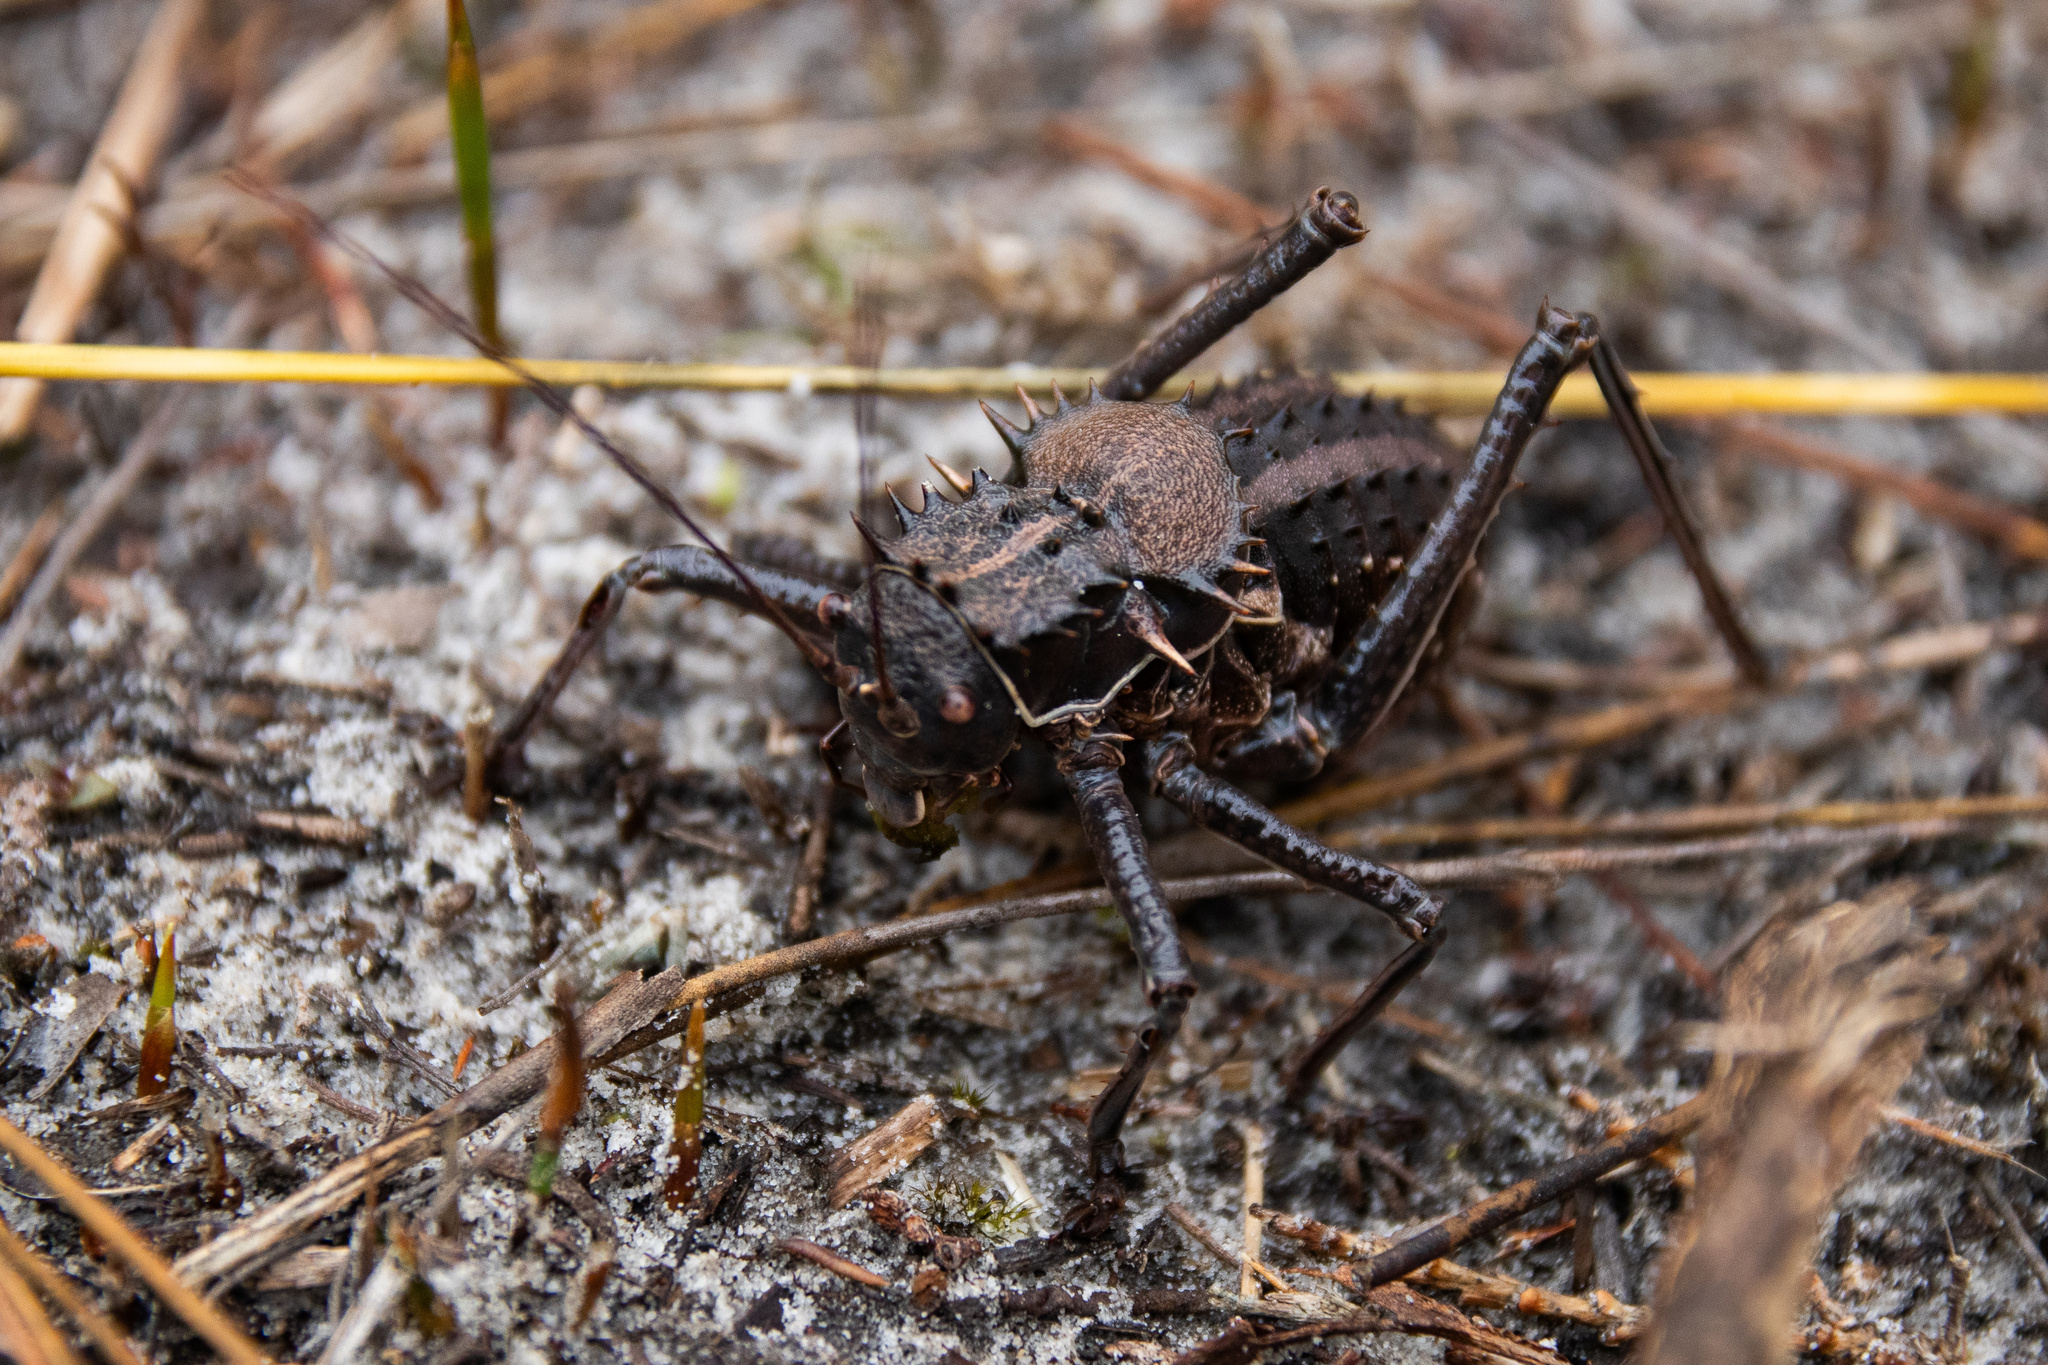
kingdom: Animalia
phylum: Arthropoda
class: Insecta
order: Orthoptera
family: Tettigoniidae
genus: Hetrodes
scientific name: Hetrodes pupus
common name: Koringkriek
